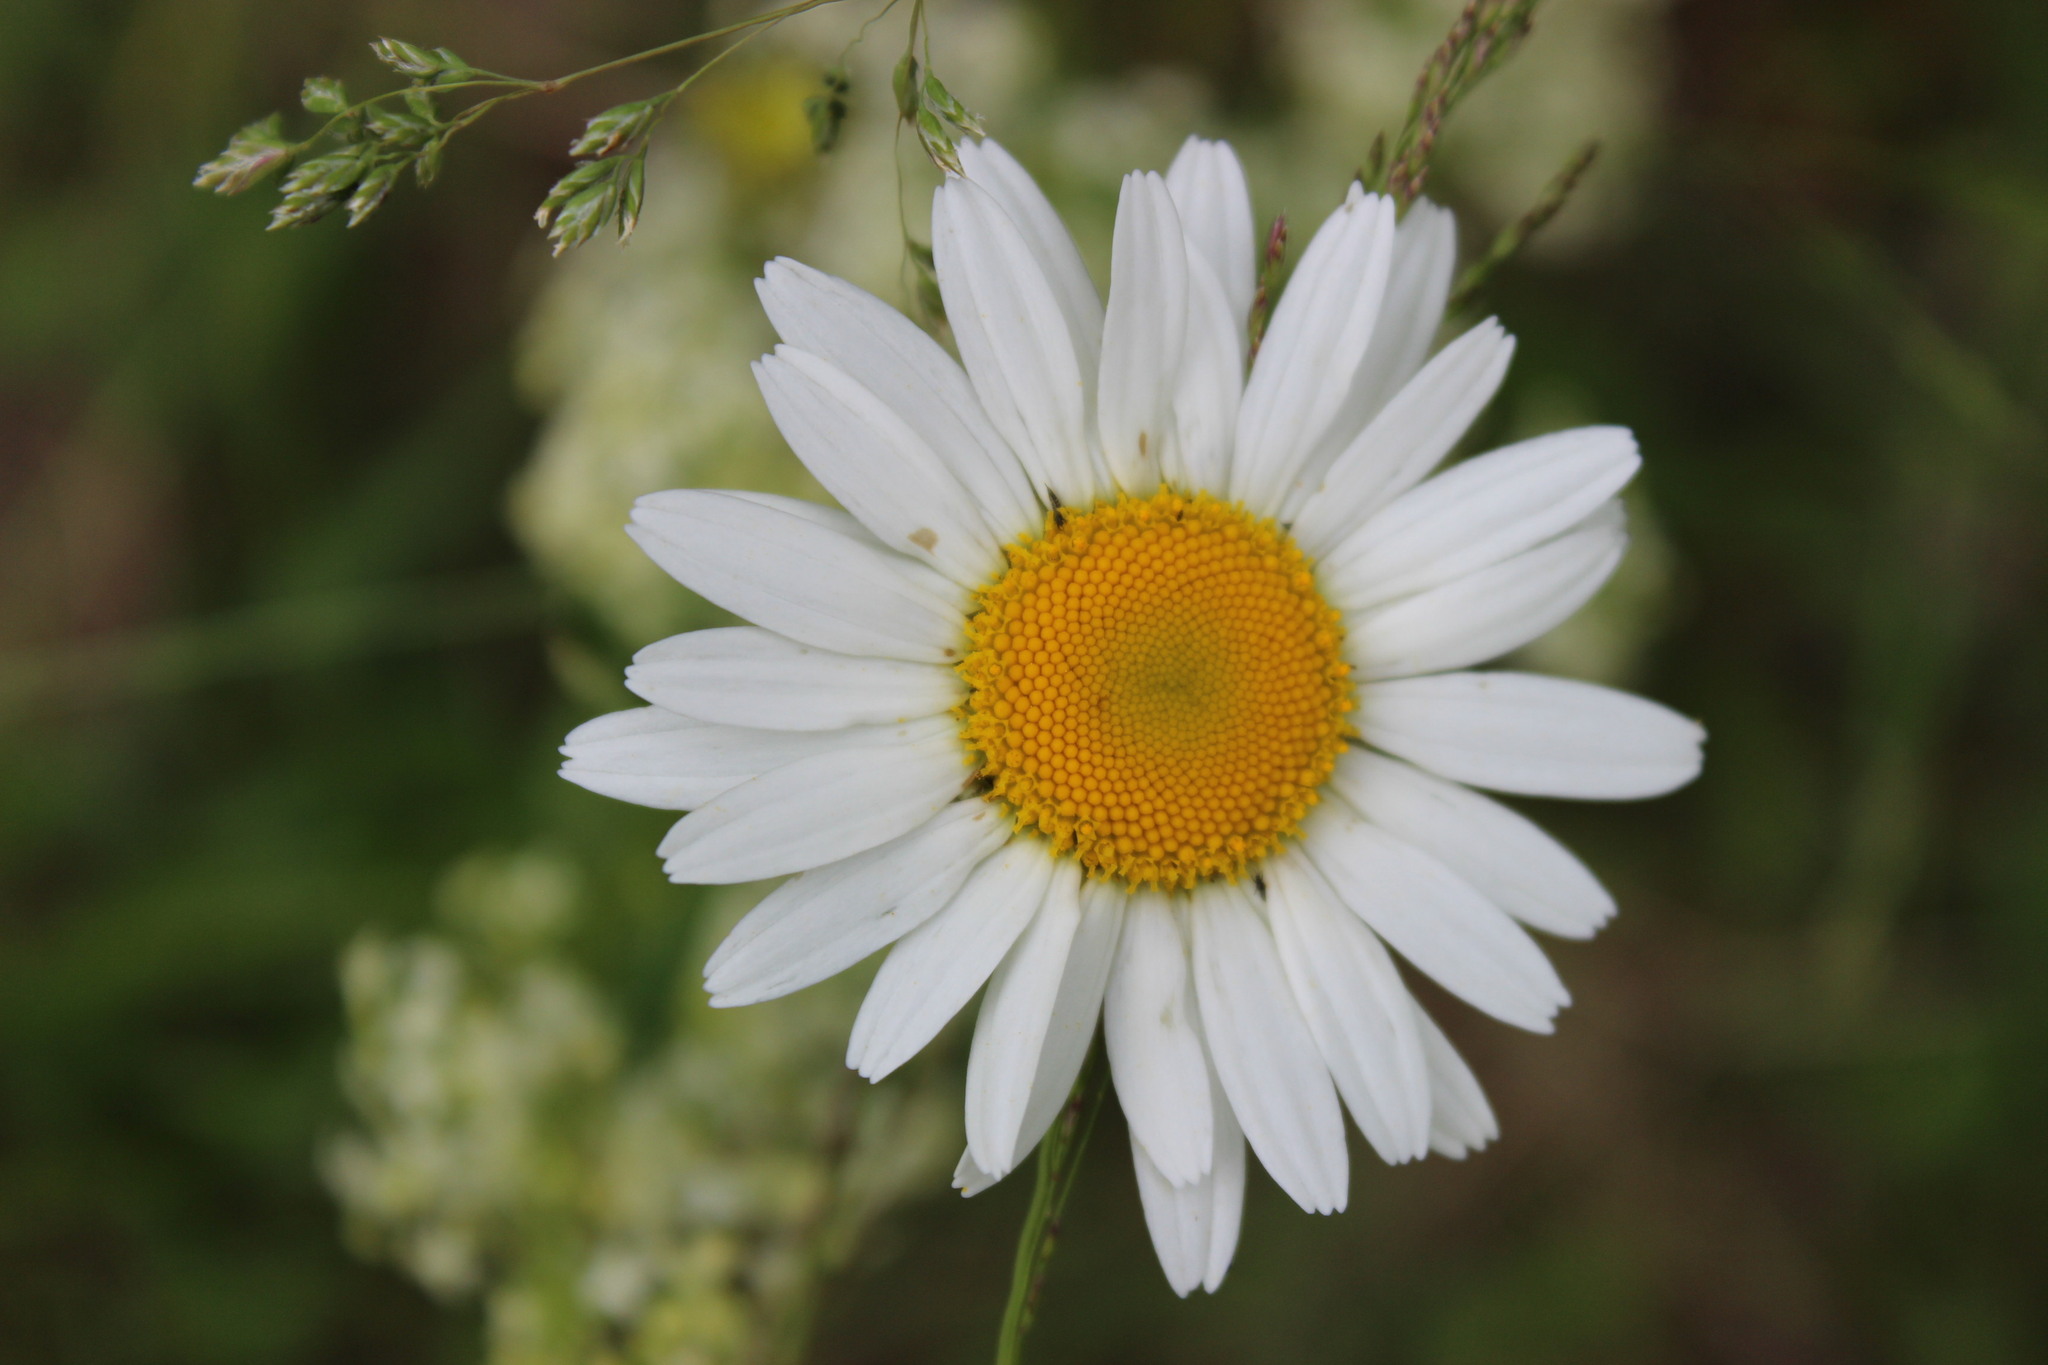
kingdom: Plantae
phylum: Tracheophyta
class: Magnoliopsida
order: Asterales
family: Asteraceae
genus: Leucanthemum
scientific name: Leucanthemum vulgare
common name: Oxeye daisy
